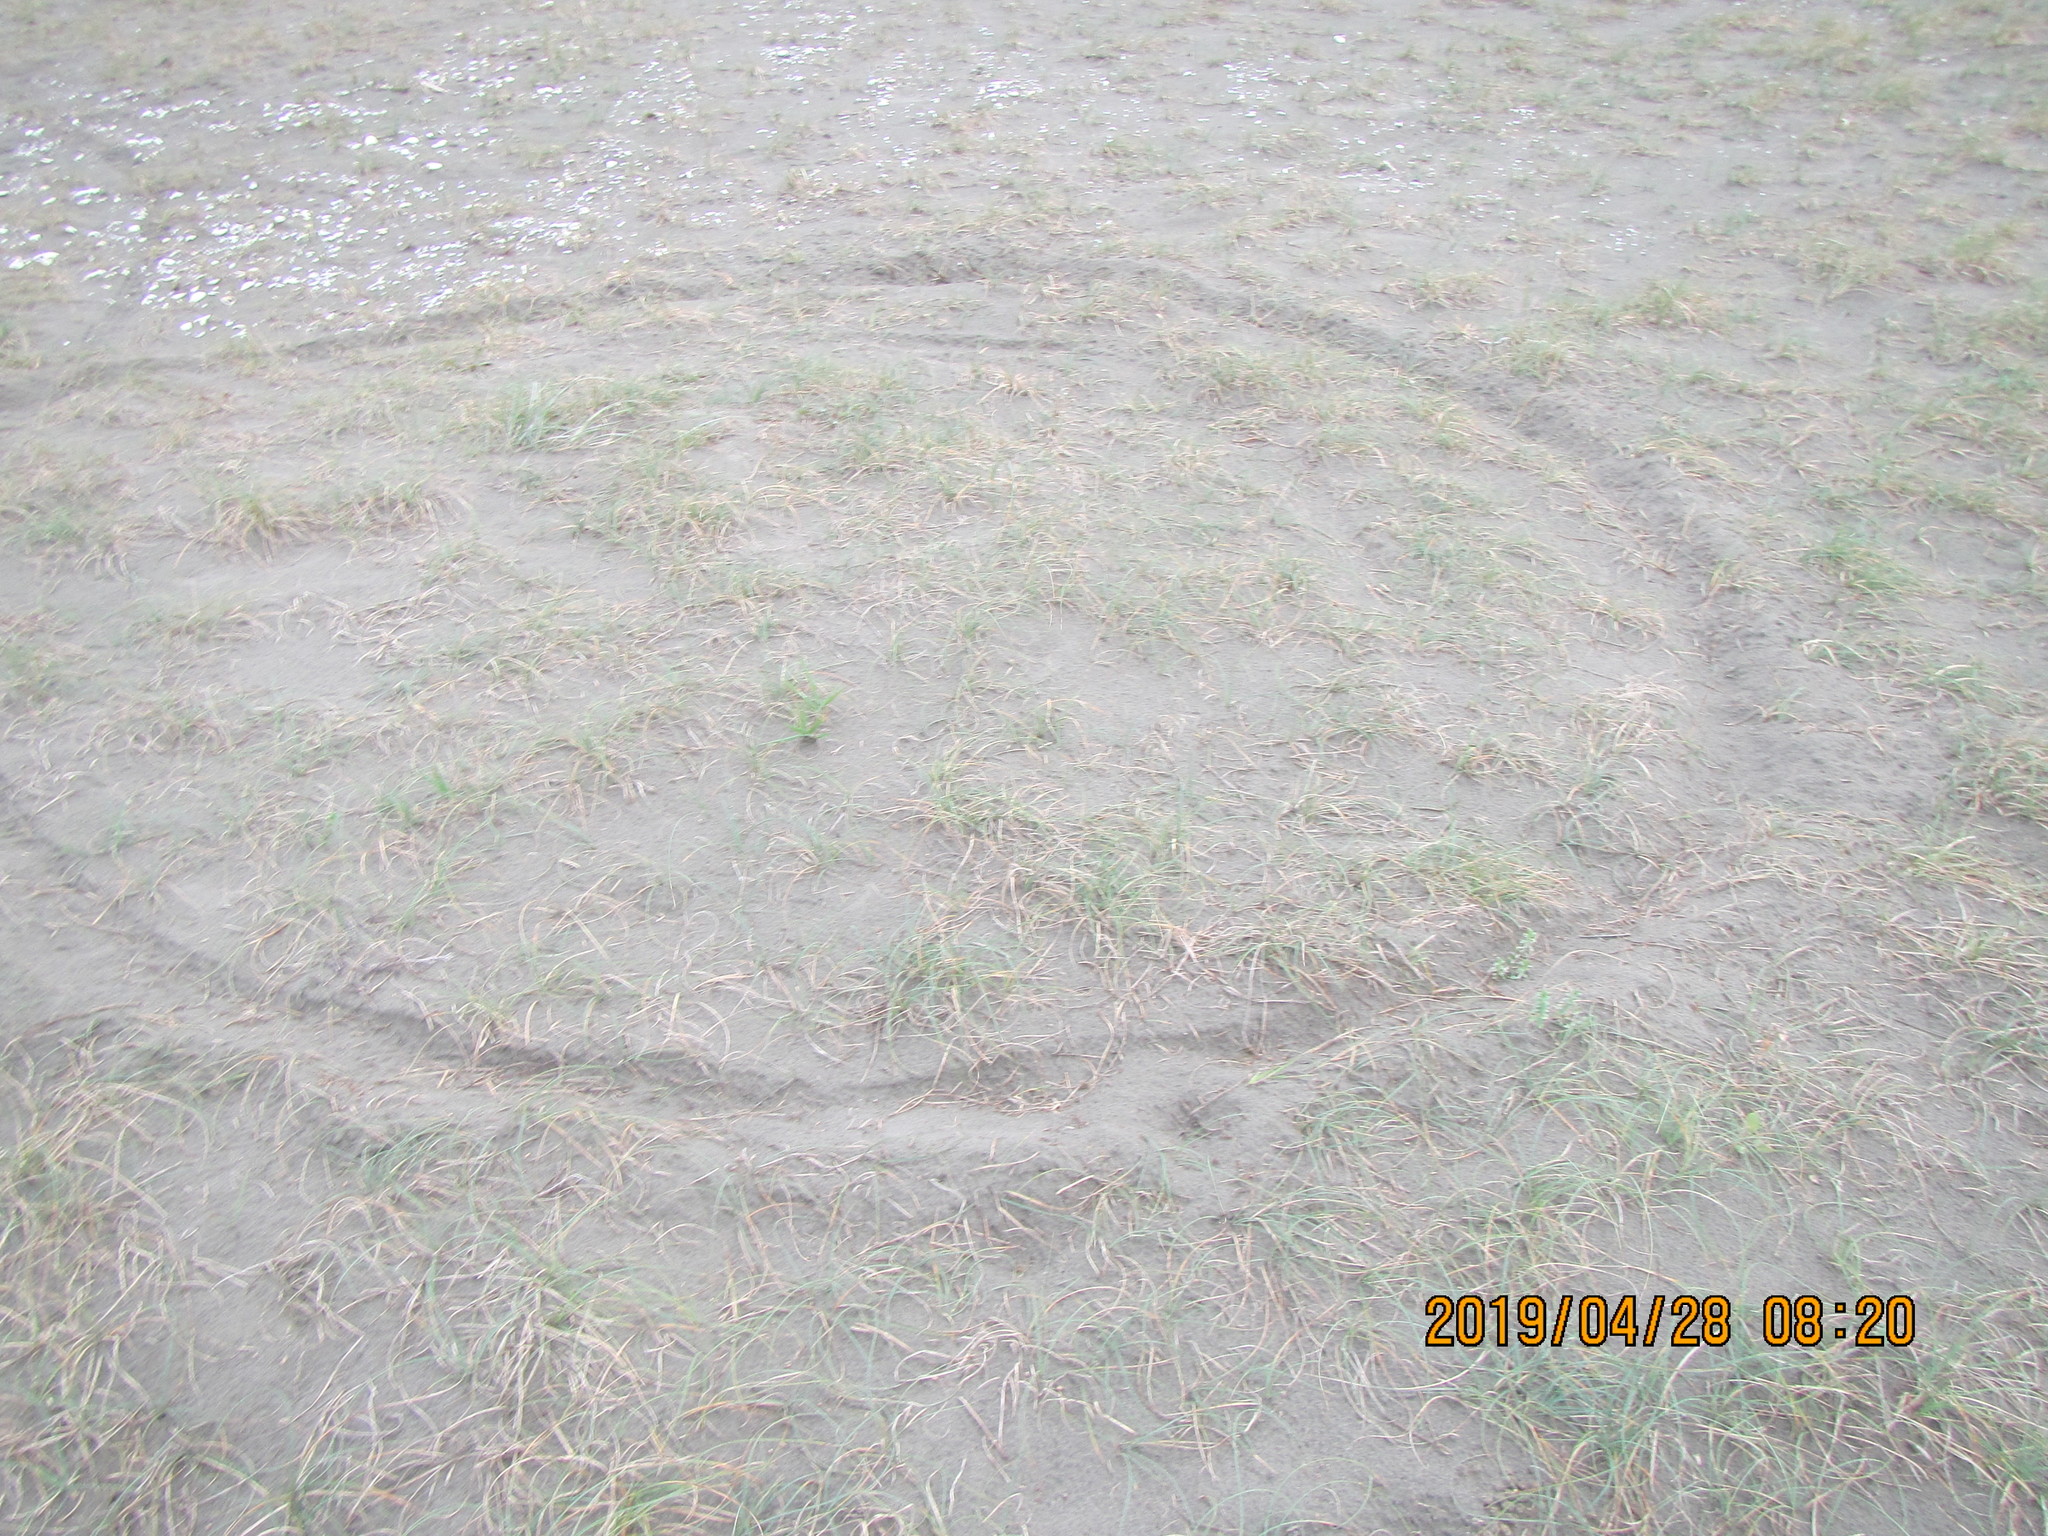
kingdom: Plantae
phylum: Tracheophyta
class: Magnoliopsida
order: Malvales
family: Thymelaeaceae
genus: Pimelea
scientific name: Pimelea villosa
